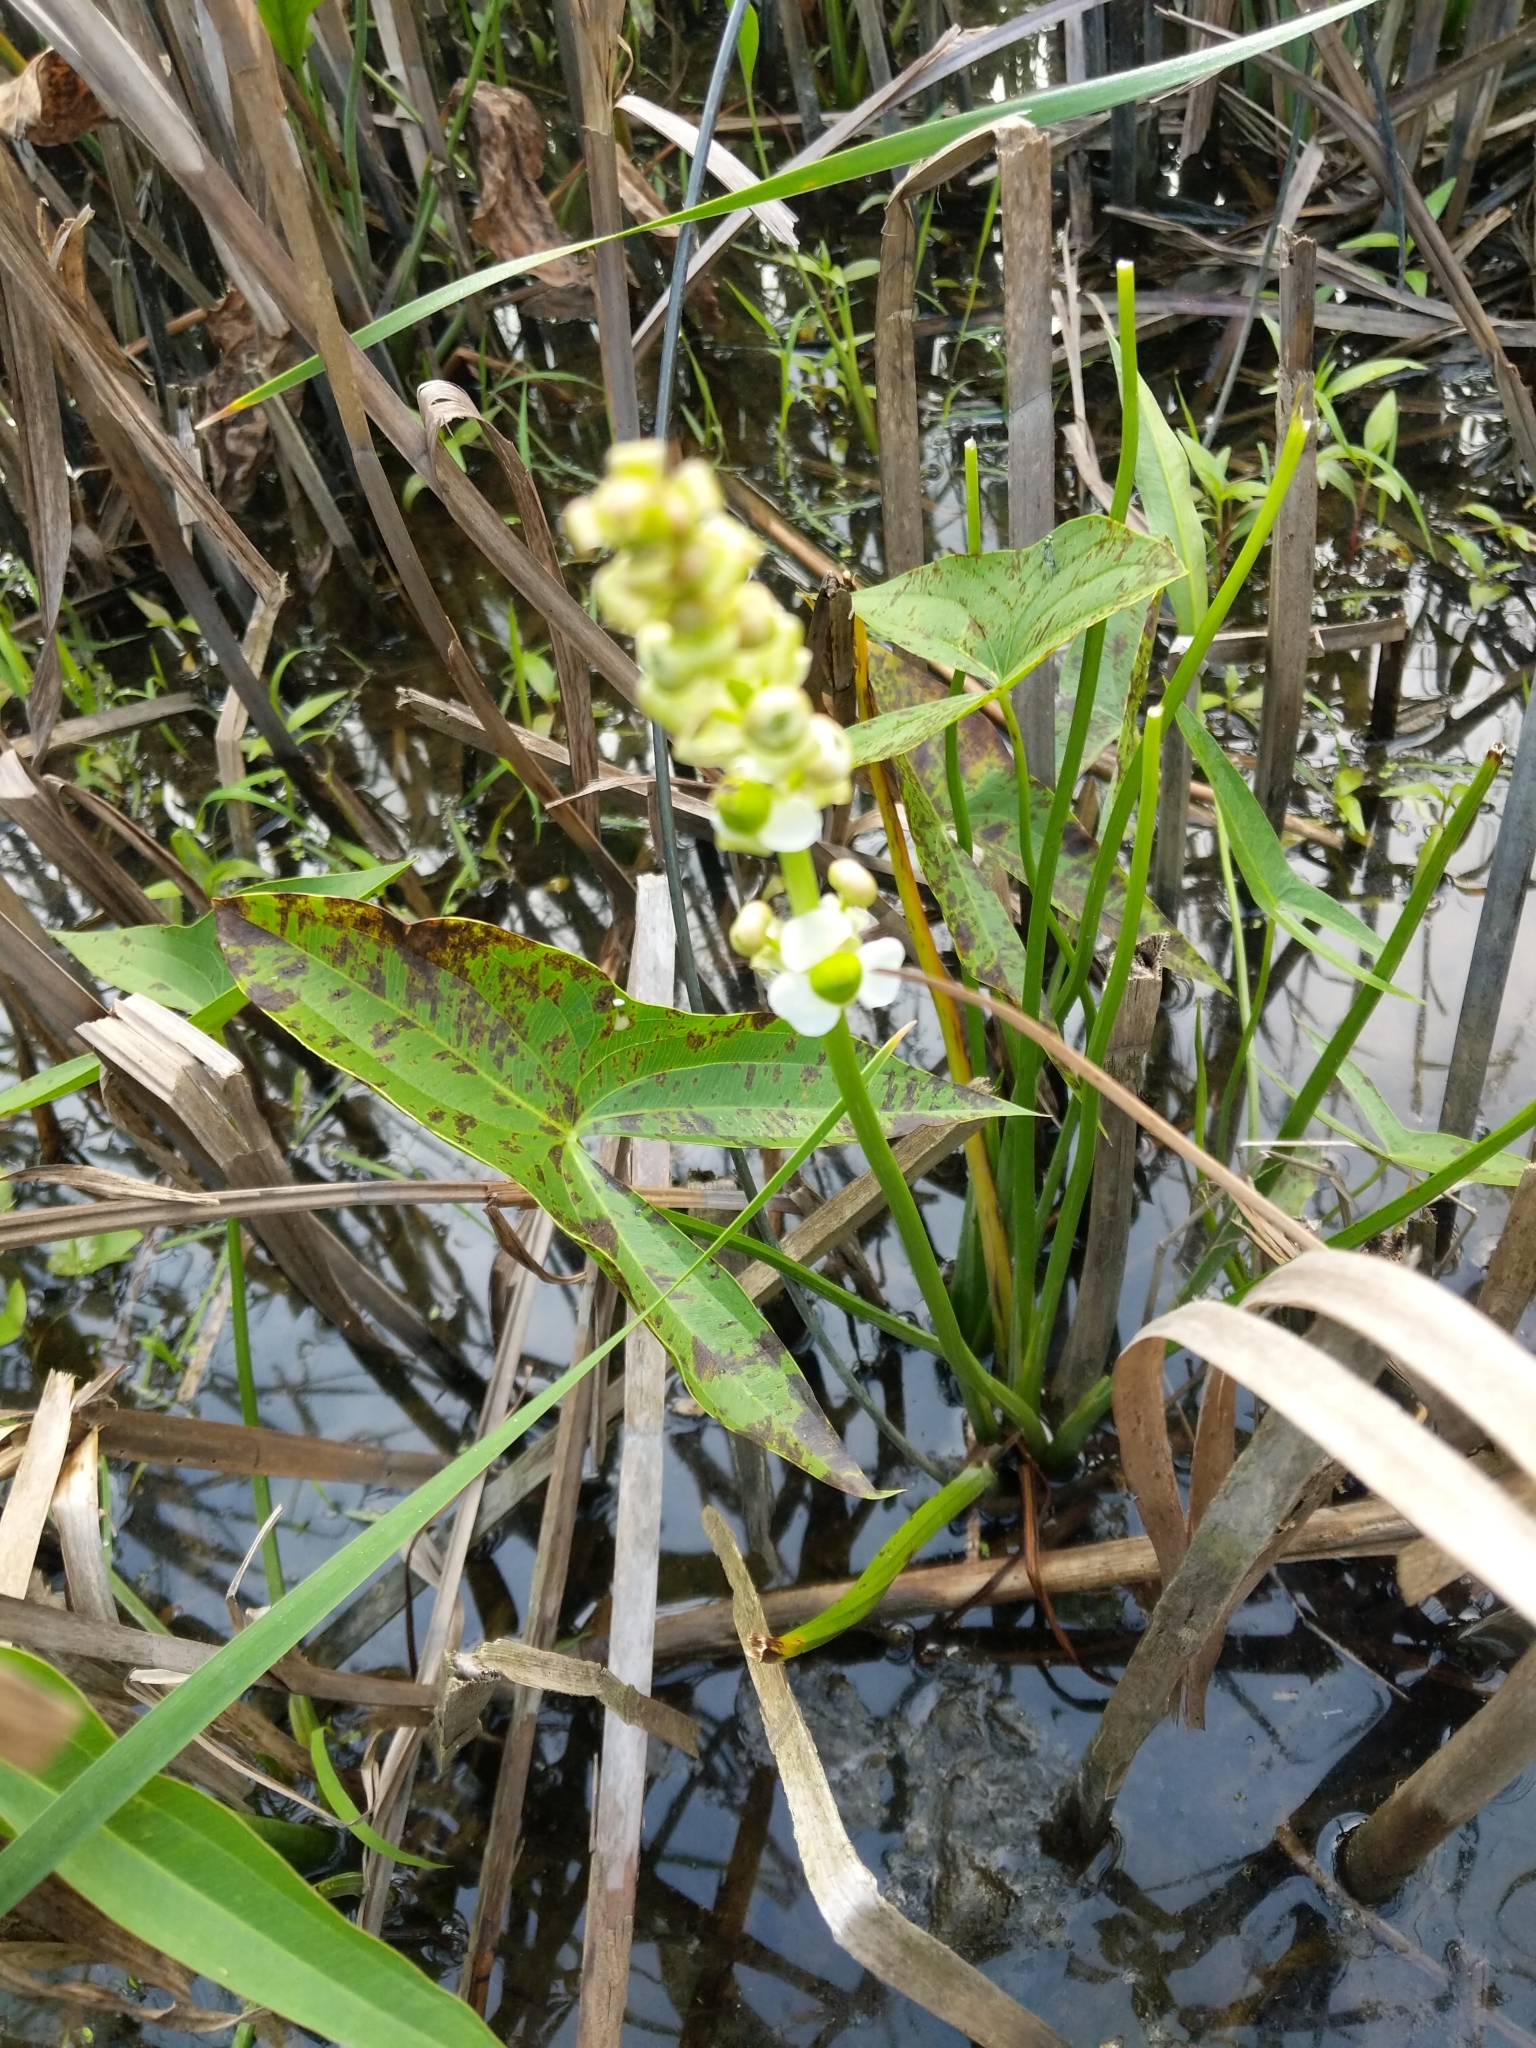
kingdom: Plantae
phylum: Tracheophyta
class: Liliopsida
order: Alismatales
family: Alismataceae
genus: Sagittaria
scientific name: Sagittaria brevirostra
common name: Midwestern arrowhead
